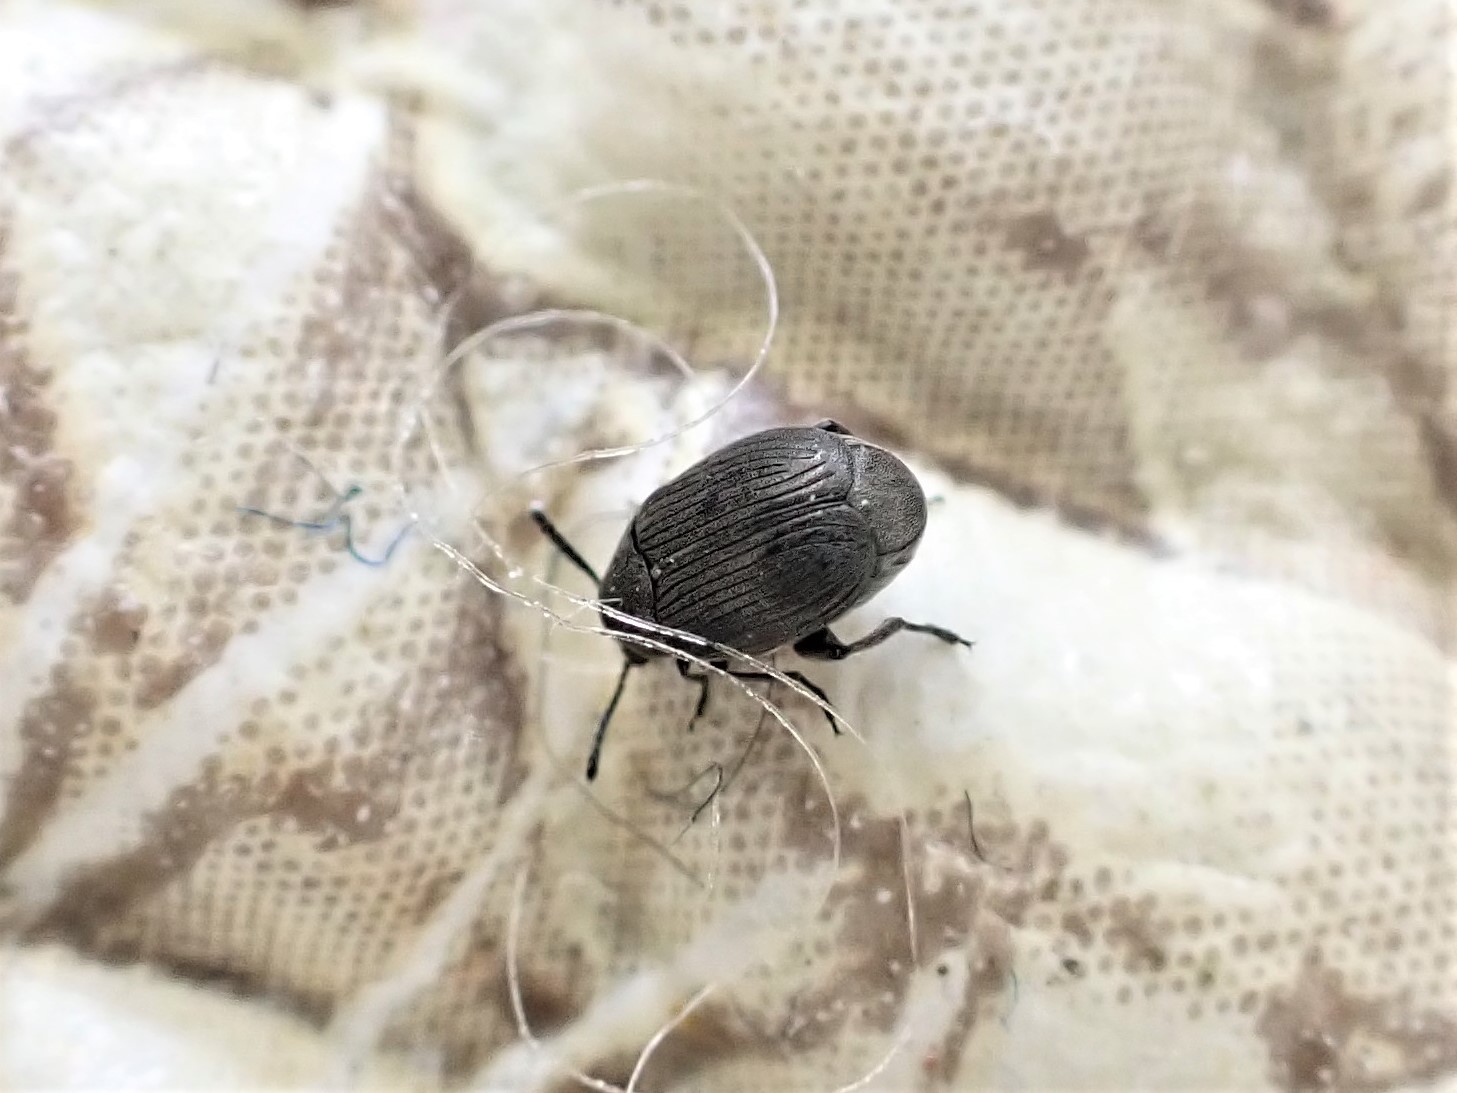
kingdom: Animalia
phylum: Arthropoda
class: Insecta
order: Coleoptera
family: Chrysomelidae
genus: Bruchidius
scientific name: Bruchidius villosus
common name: Scotch broom bruchid
